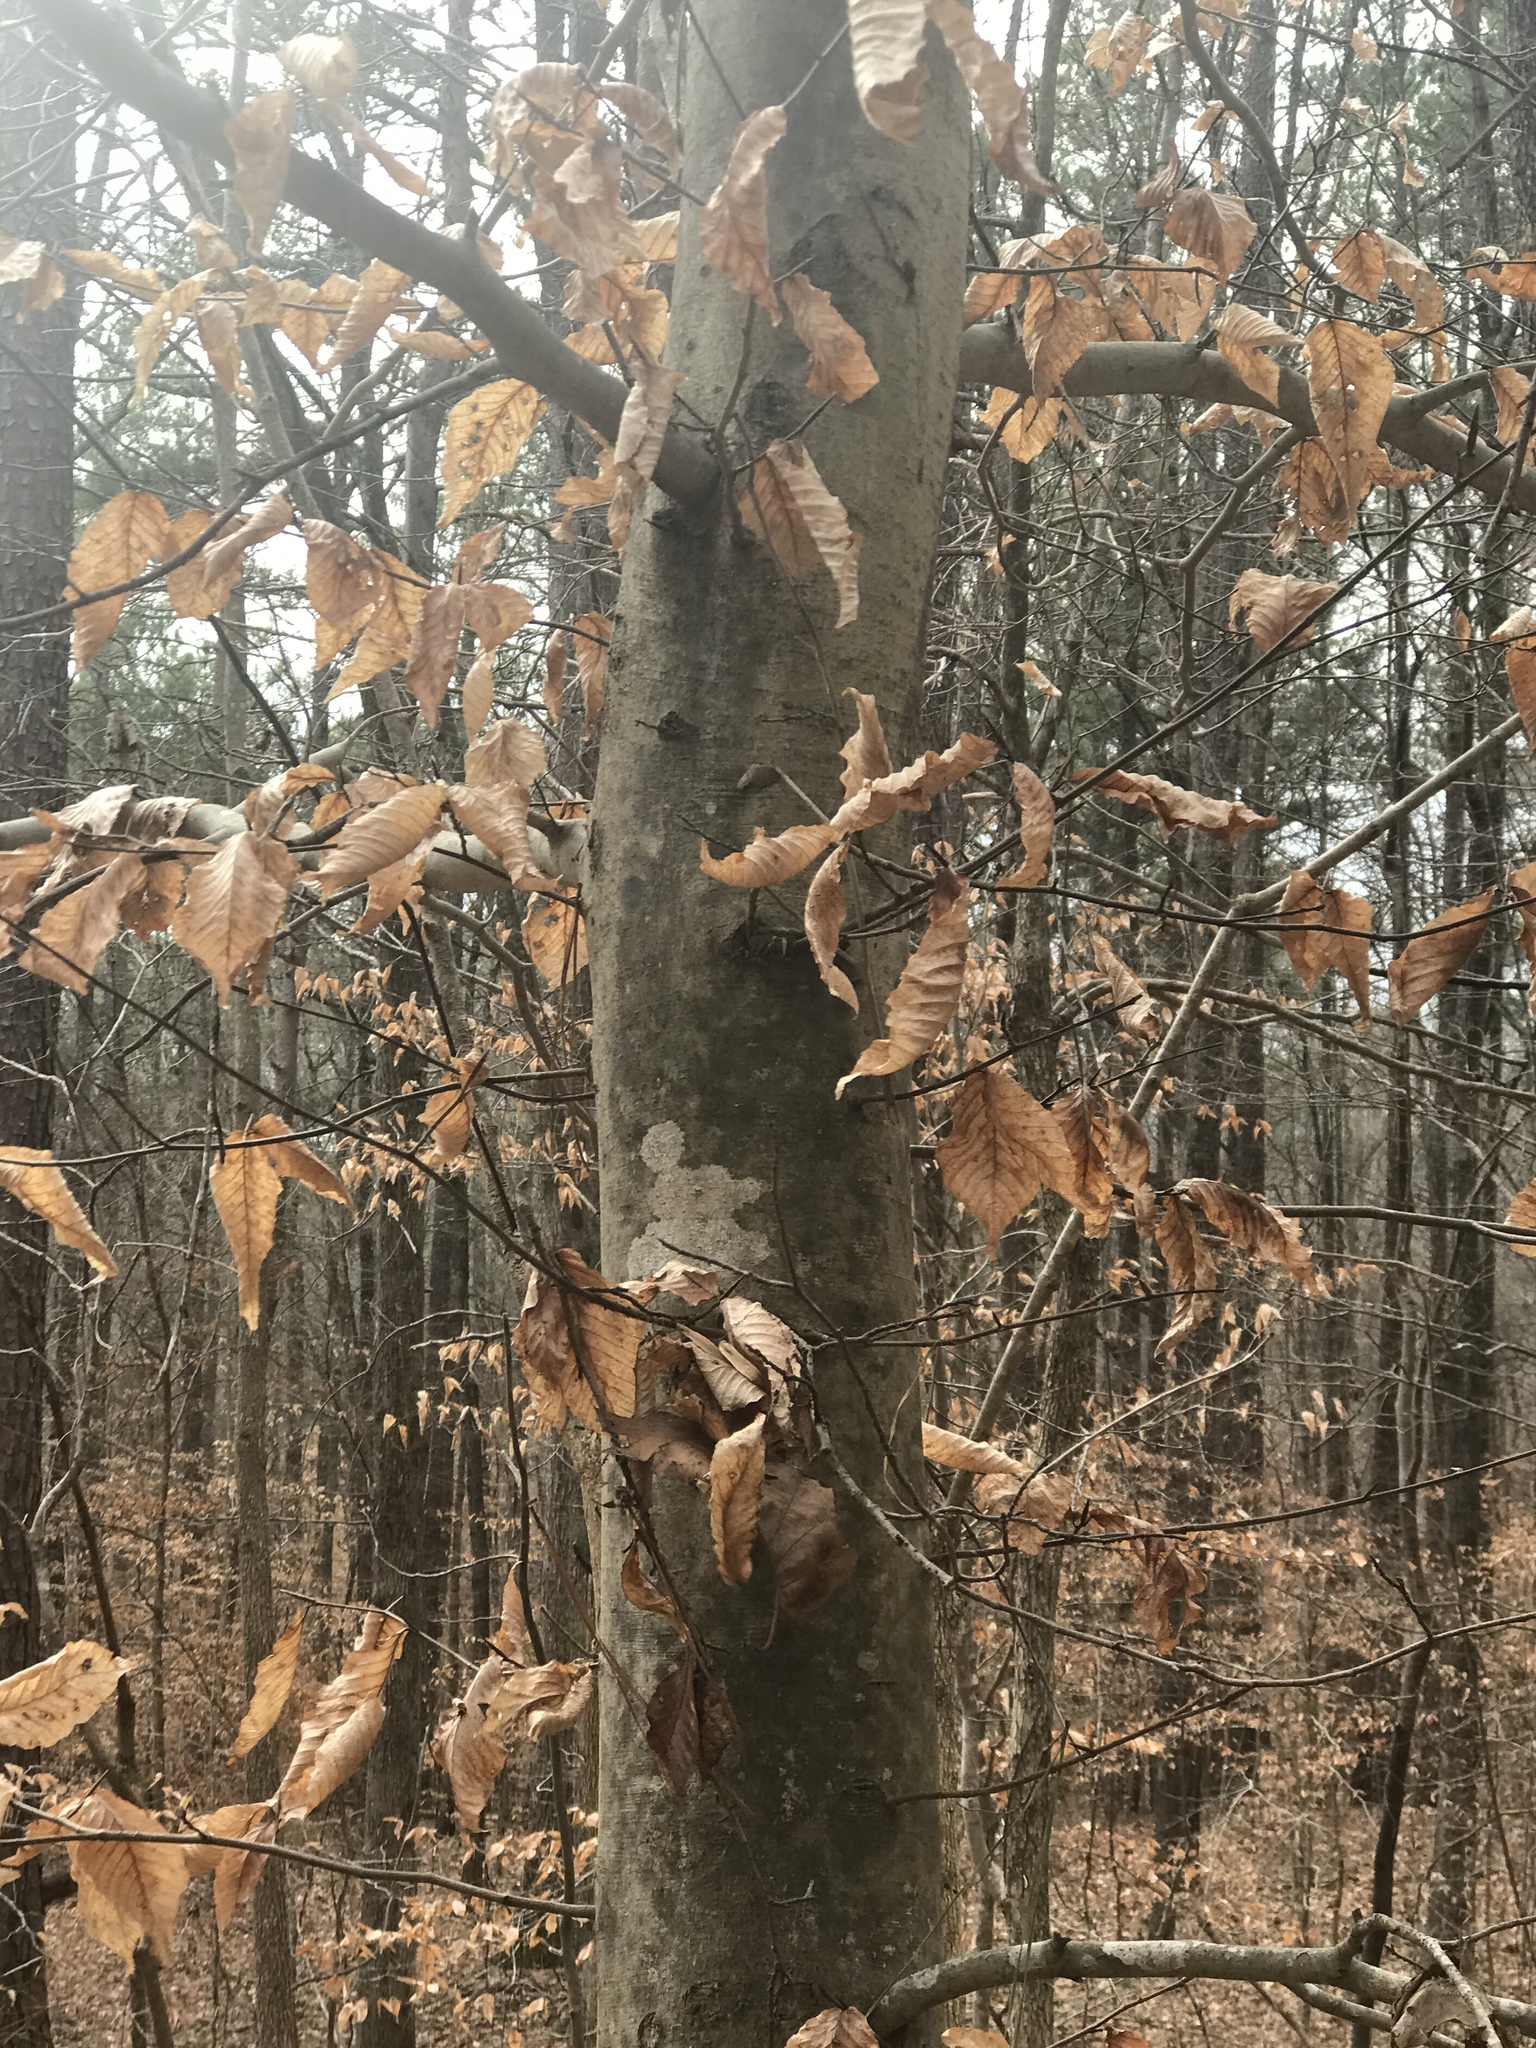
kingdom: Plantae
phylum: Tracheophyta
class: Magnoliopsida
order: Fagales
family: Fagaceae
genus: Fagus
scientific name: Fagus grandifolia
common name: American beech
